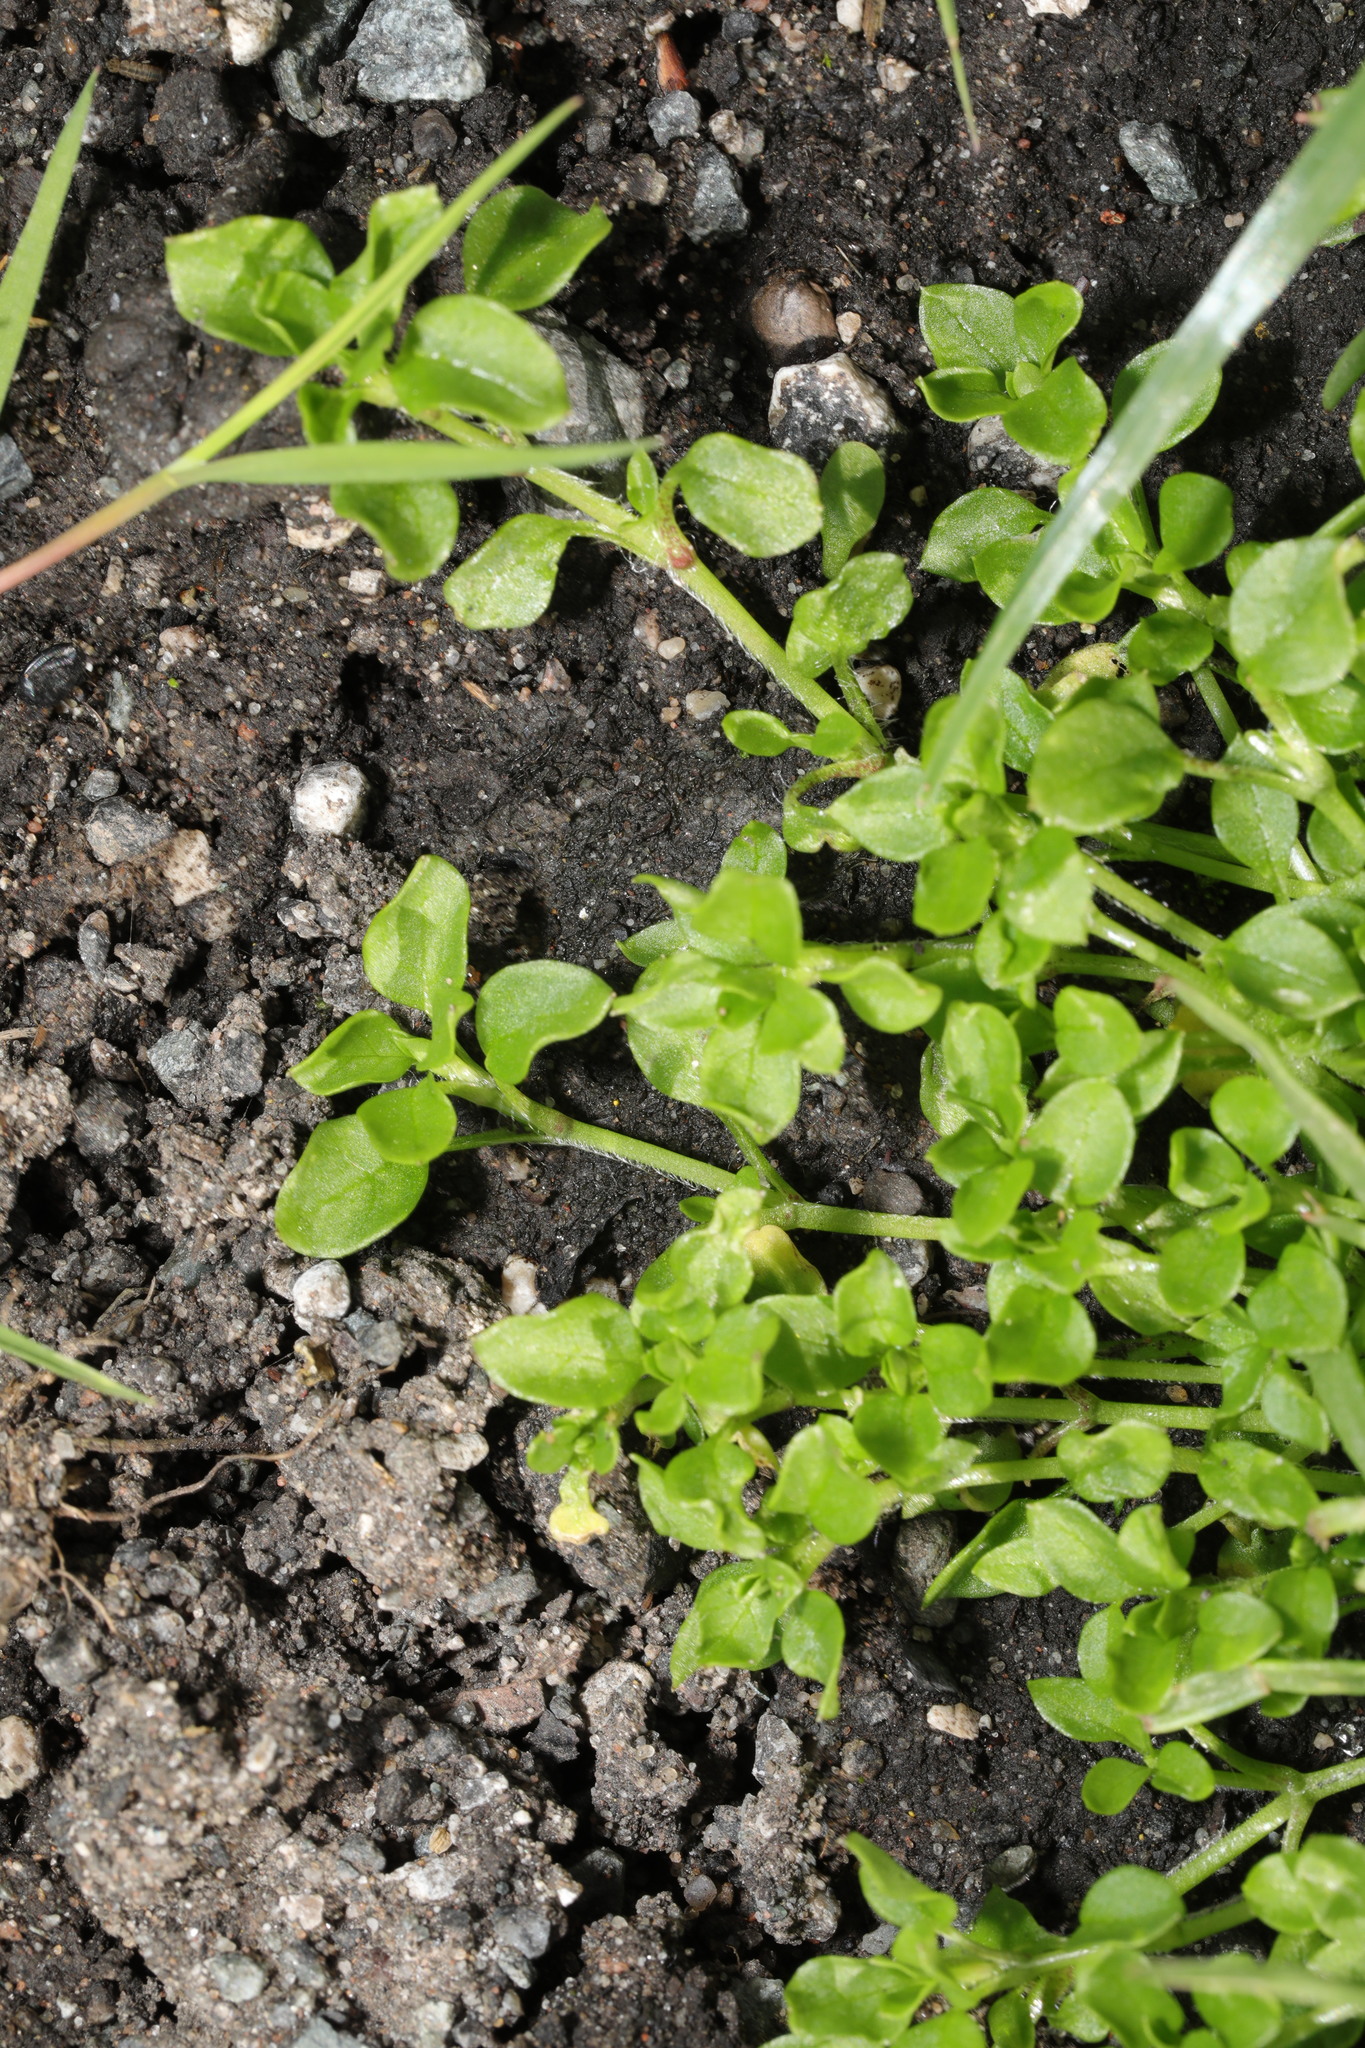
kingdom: Plantae
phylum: Tracheophyta
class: Magnoliopsida
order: Caryophyllales
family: Caryophyllaceae
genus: Stellaria
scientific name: Stellaria media
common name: Common chickweed
